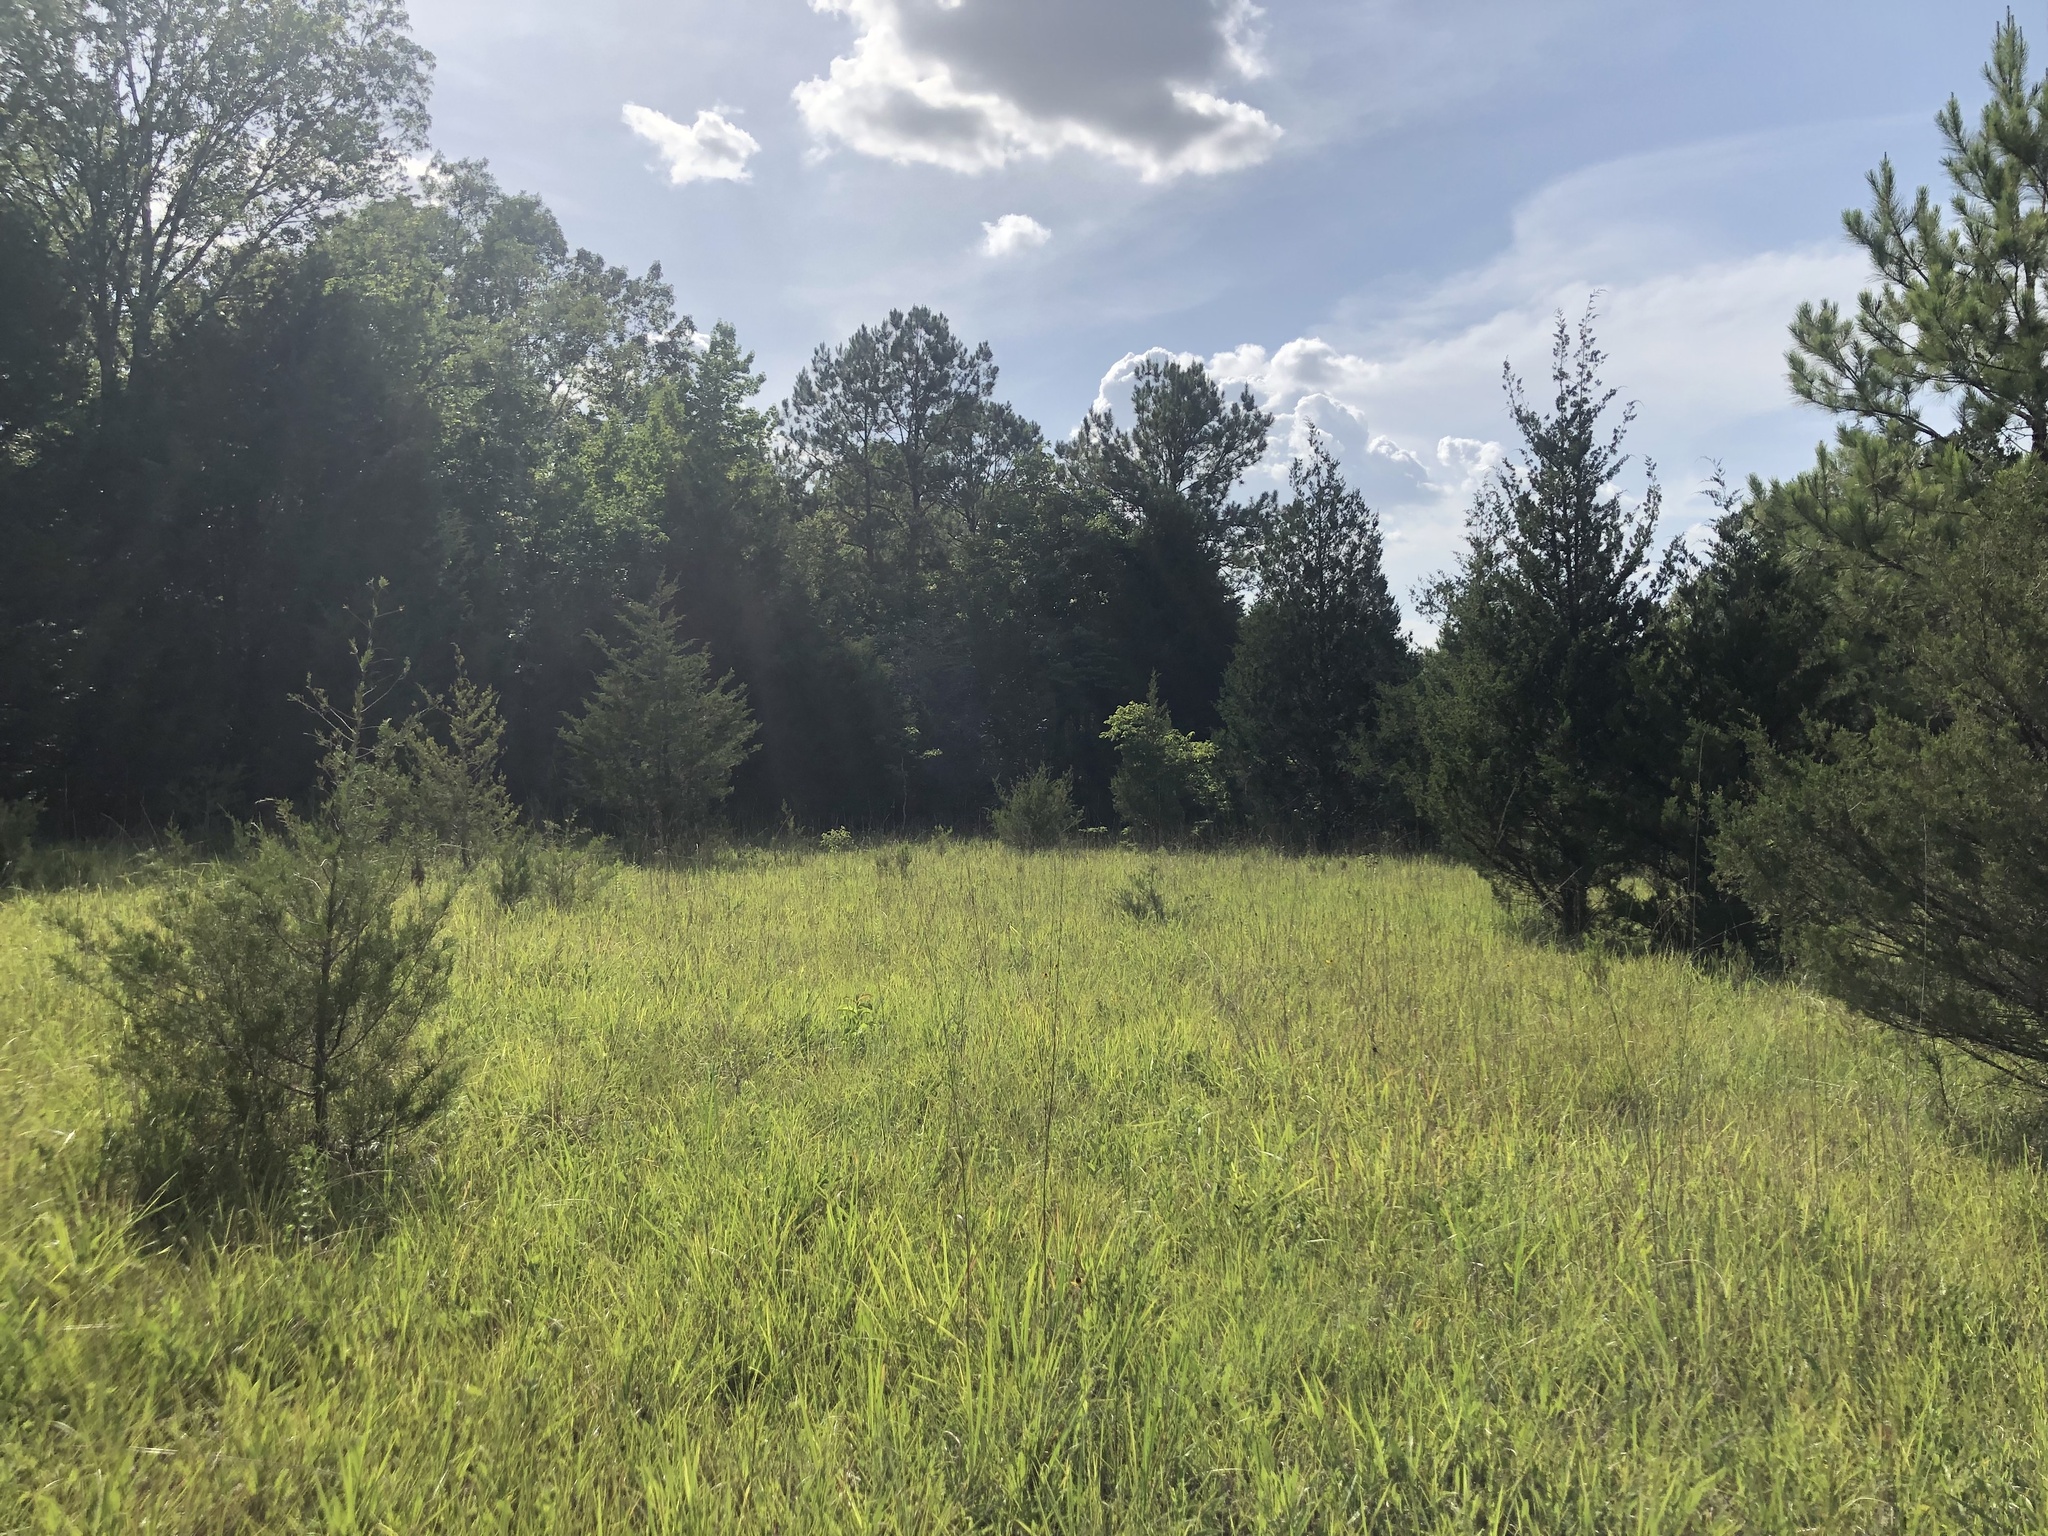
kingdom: Plantae
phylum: Tracheophyta
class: Liliopsida
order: Poales
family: Poaceae
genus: Sporobolus
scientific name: Sporobolus compositus
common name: Rough dropseed
